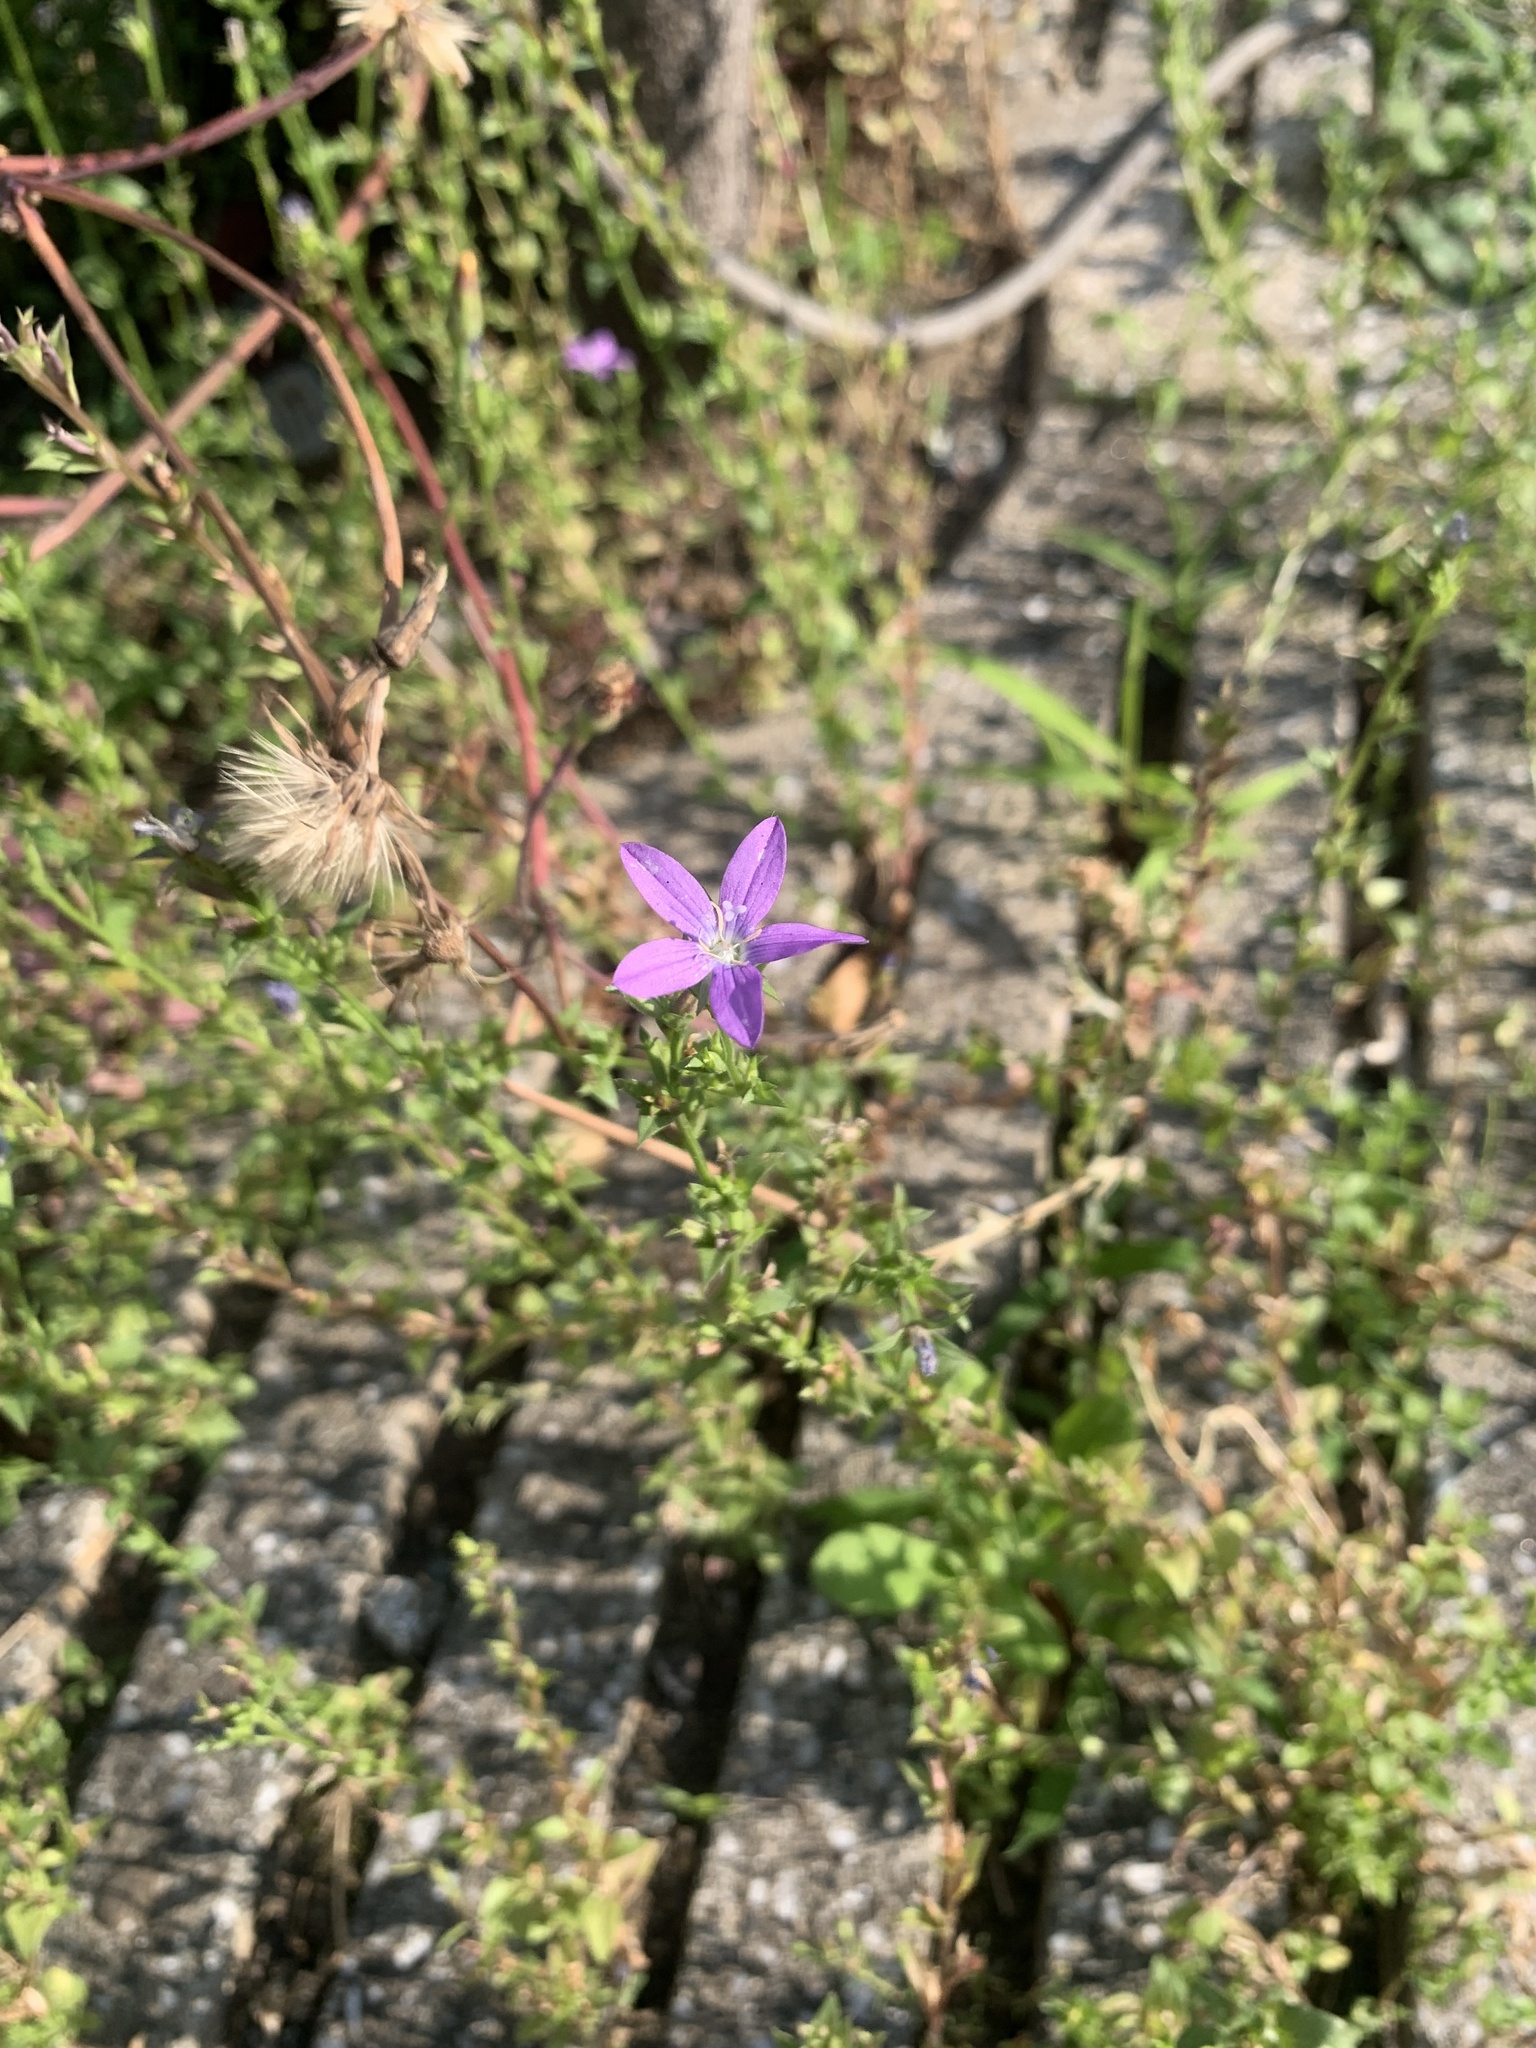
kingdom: Plantae
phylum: Tracheophyta
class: Magnoliopsida
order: Asterales
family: Campanulaceae
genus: Triodanis
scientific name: Triodanis biflora
